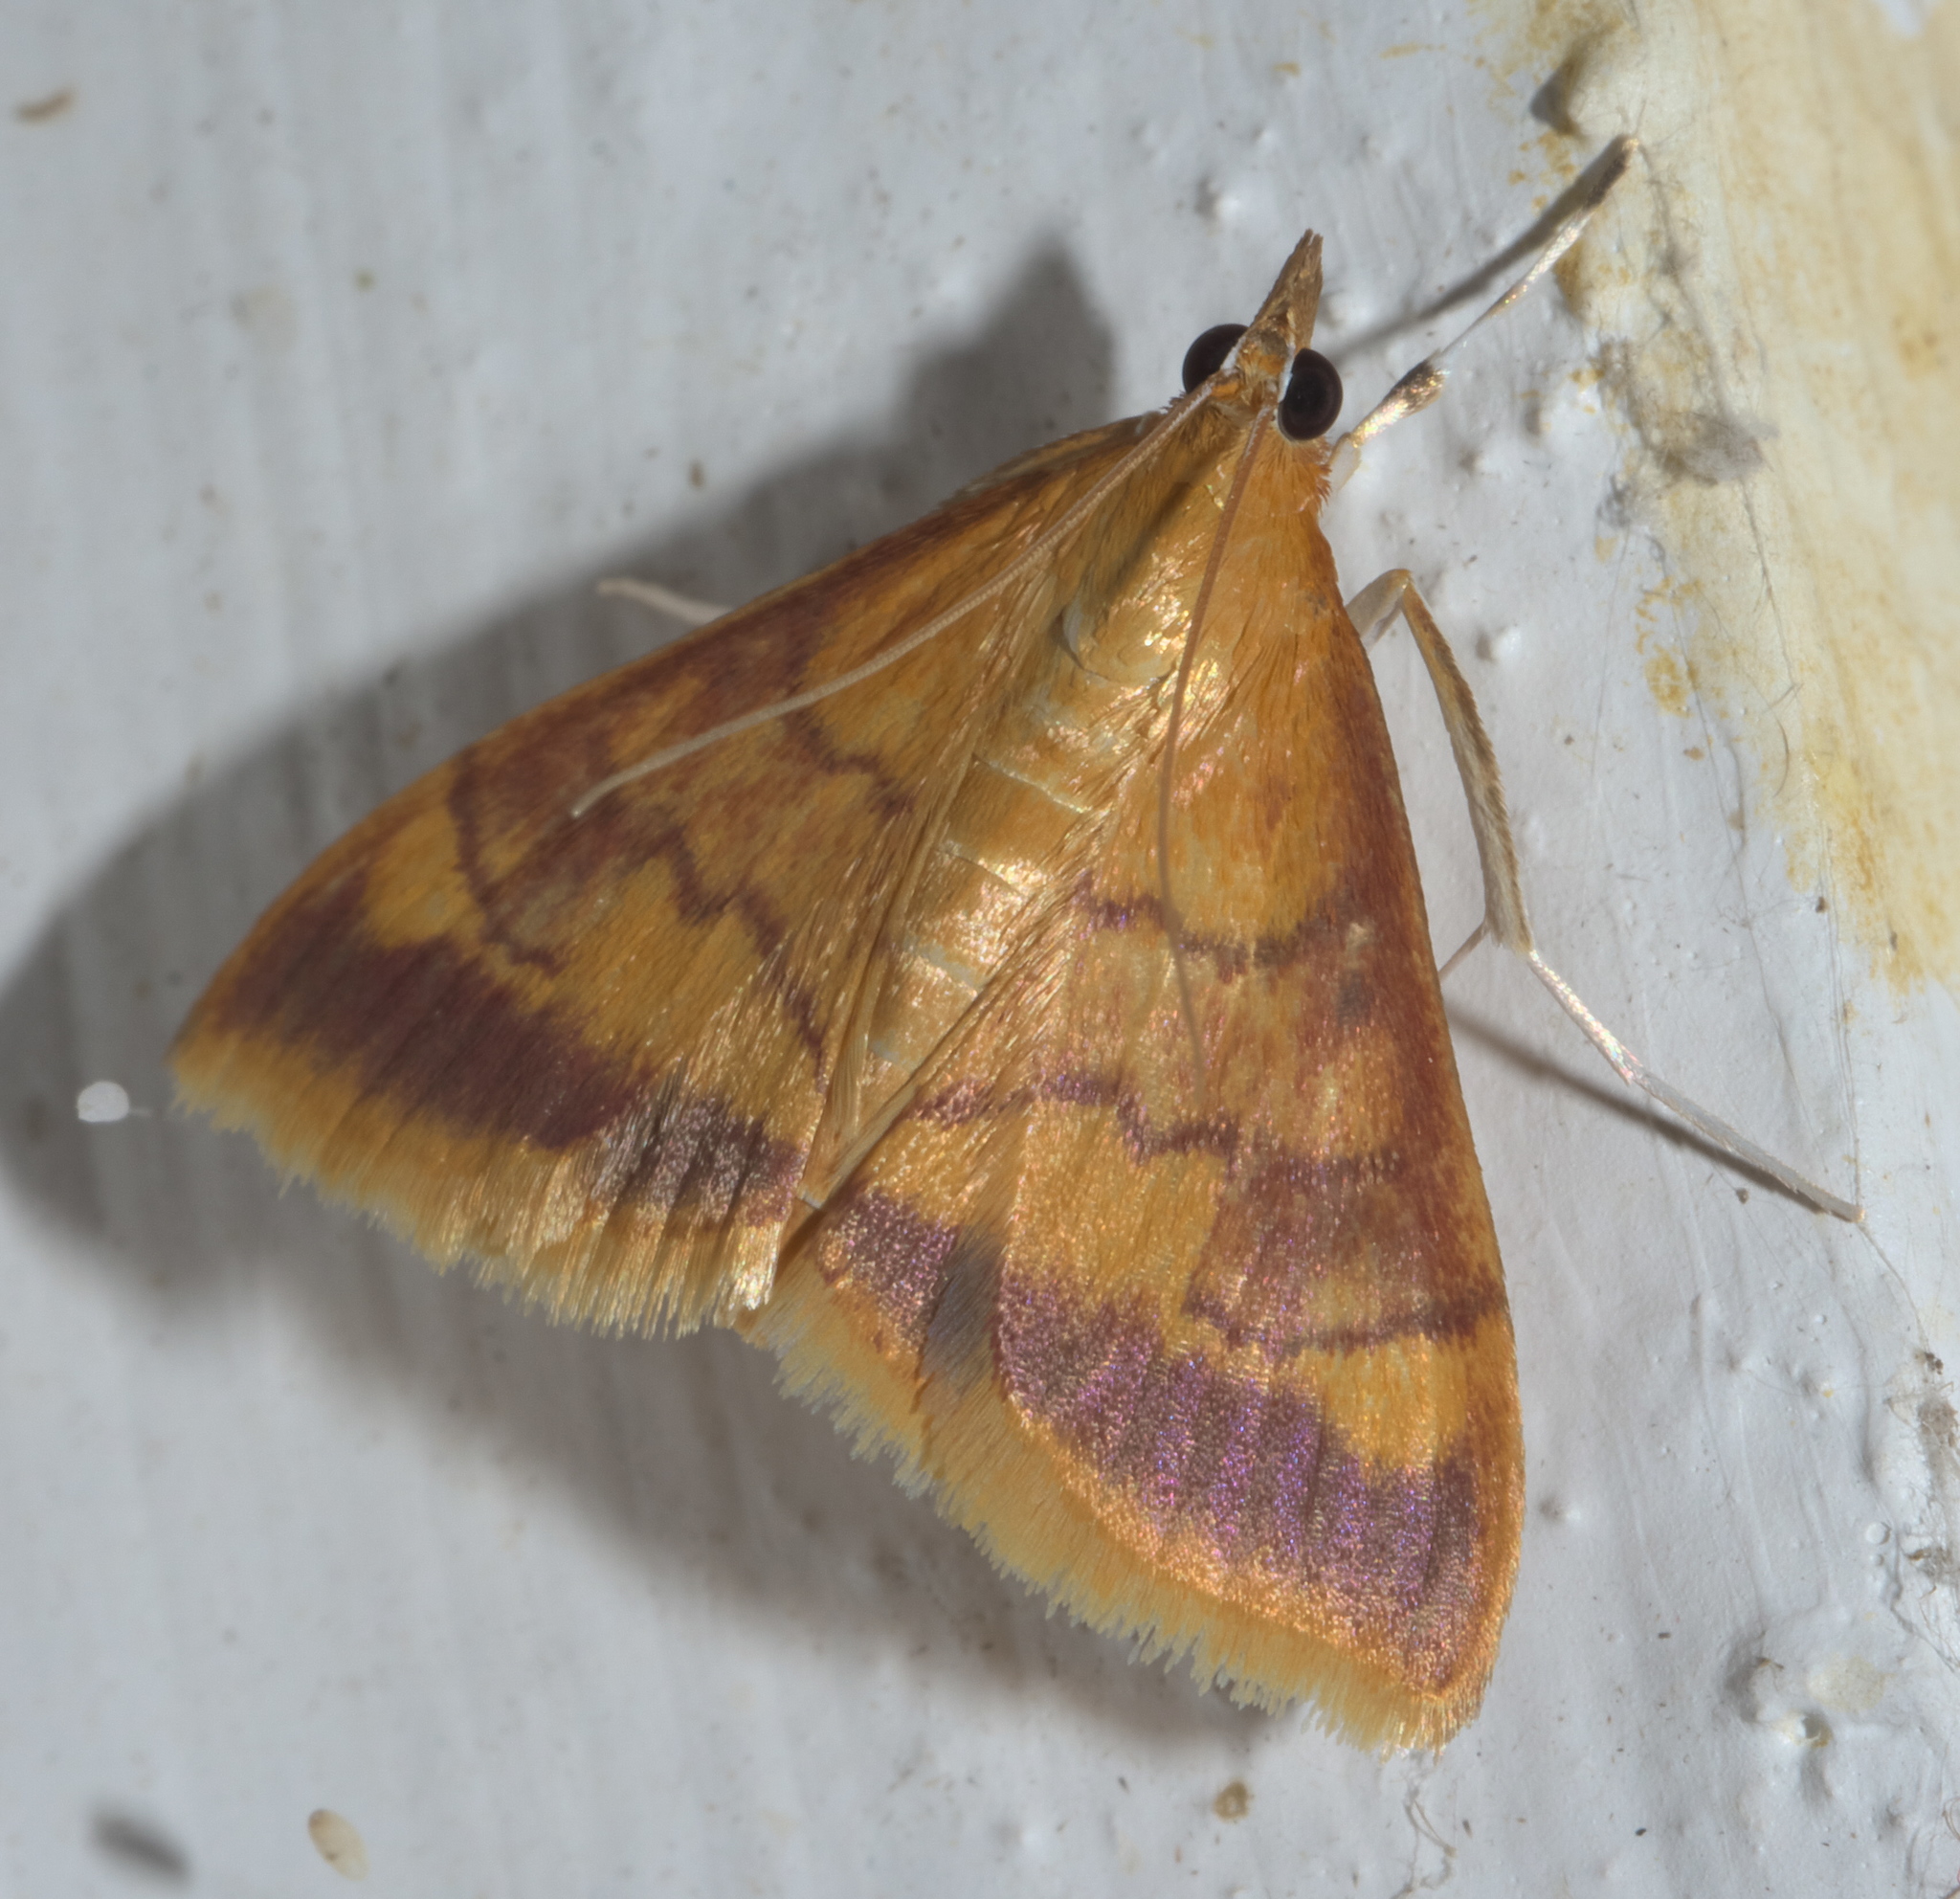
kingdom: Animalia
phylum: Arthropoda
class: Insecta
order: Lepidoptera
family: Crambidae
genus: Pyrausta
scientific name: Pyrausta onythesalis
